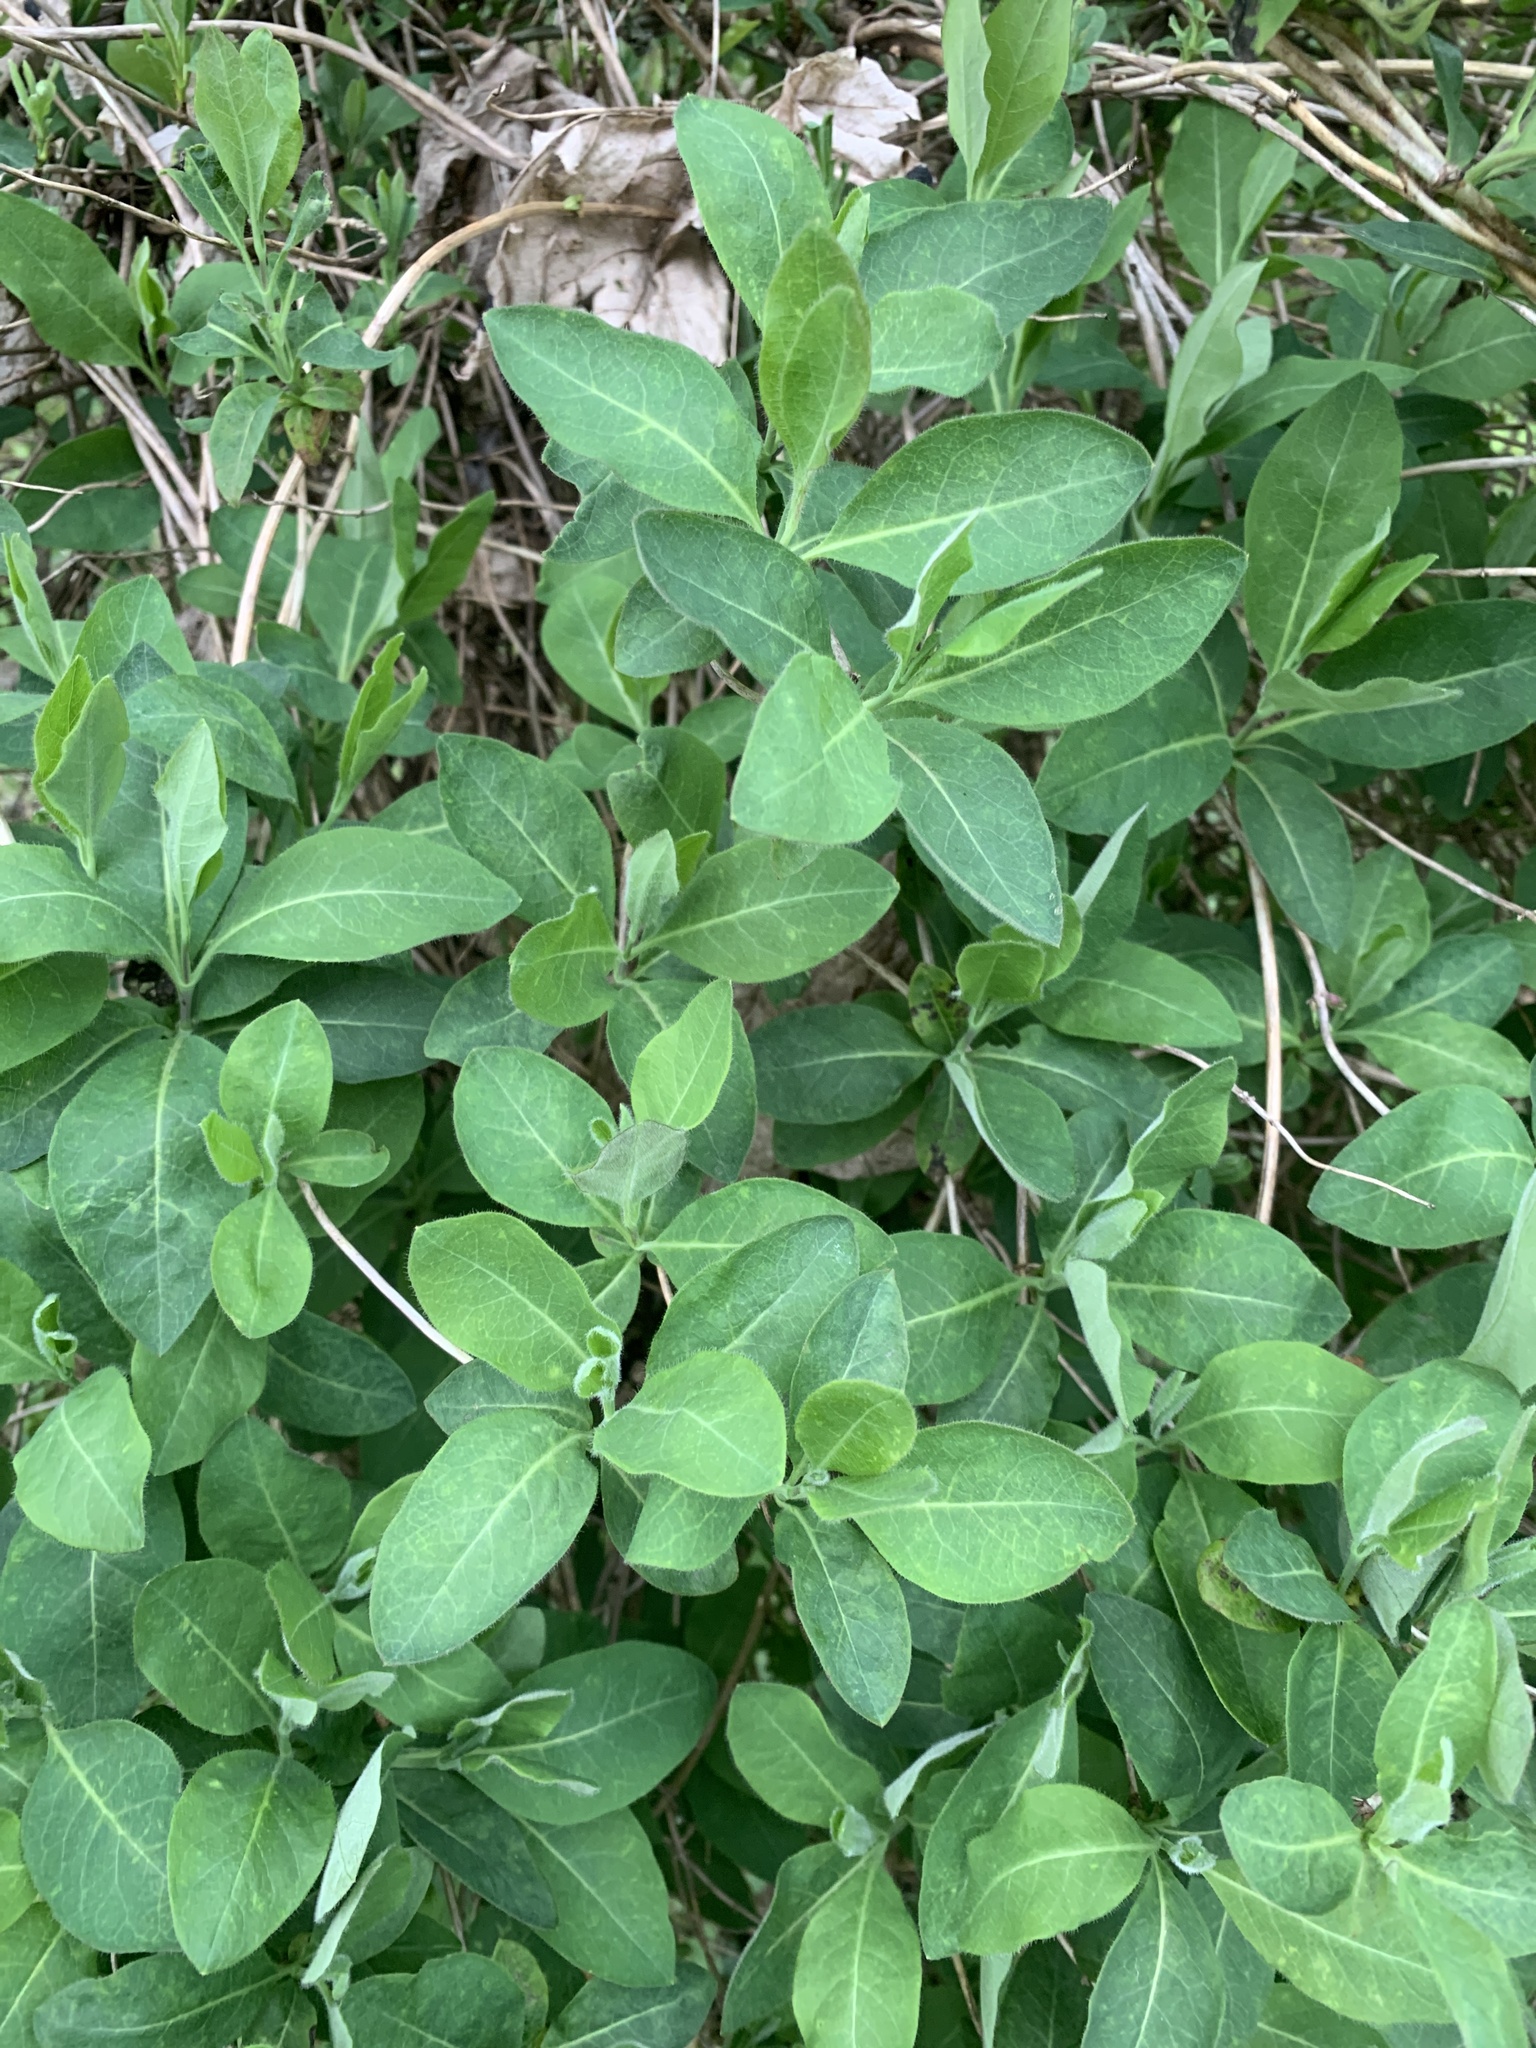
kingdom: Plantae
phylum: Tracheophyta
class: Magnoliopsida
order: Dipsacales
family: Caprifoliaceae
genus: Lonicera
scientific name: Lonicera periclymenum
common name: European honeysuckle
